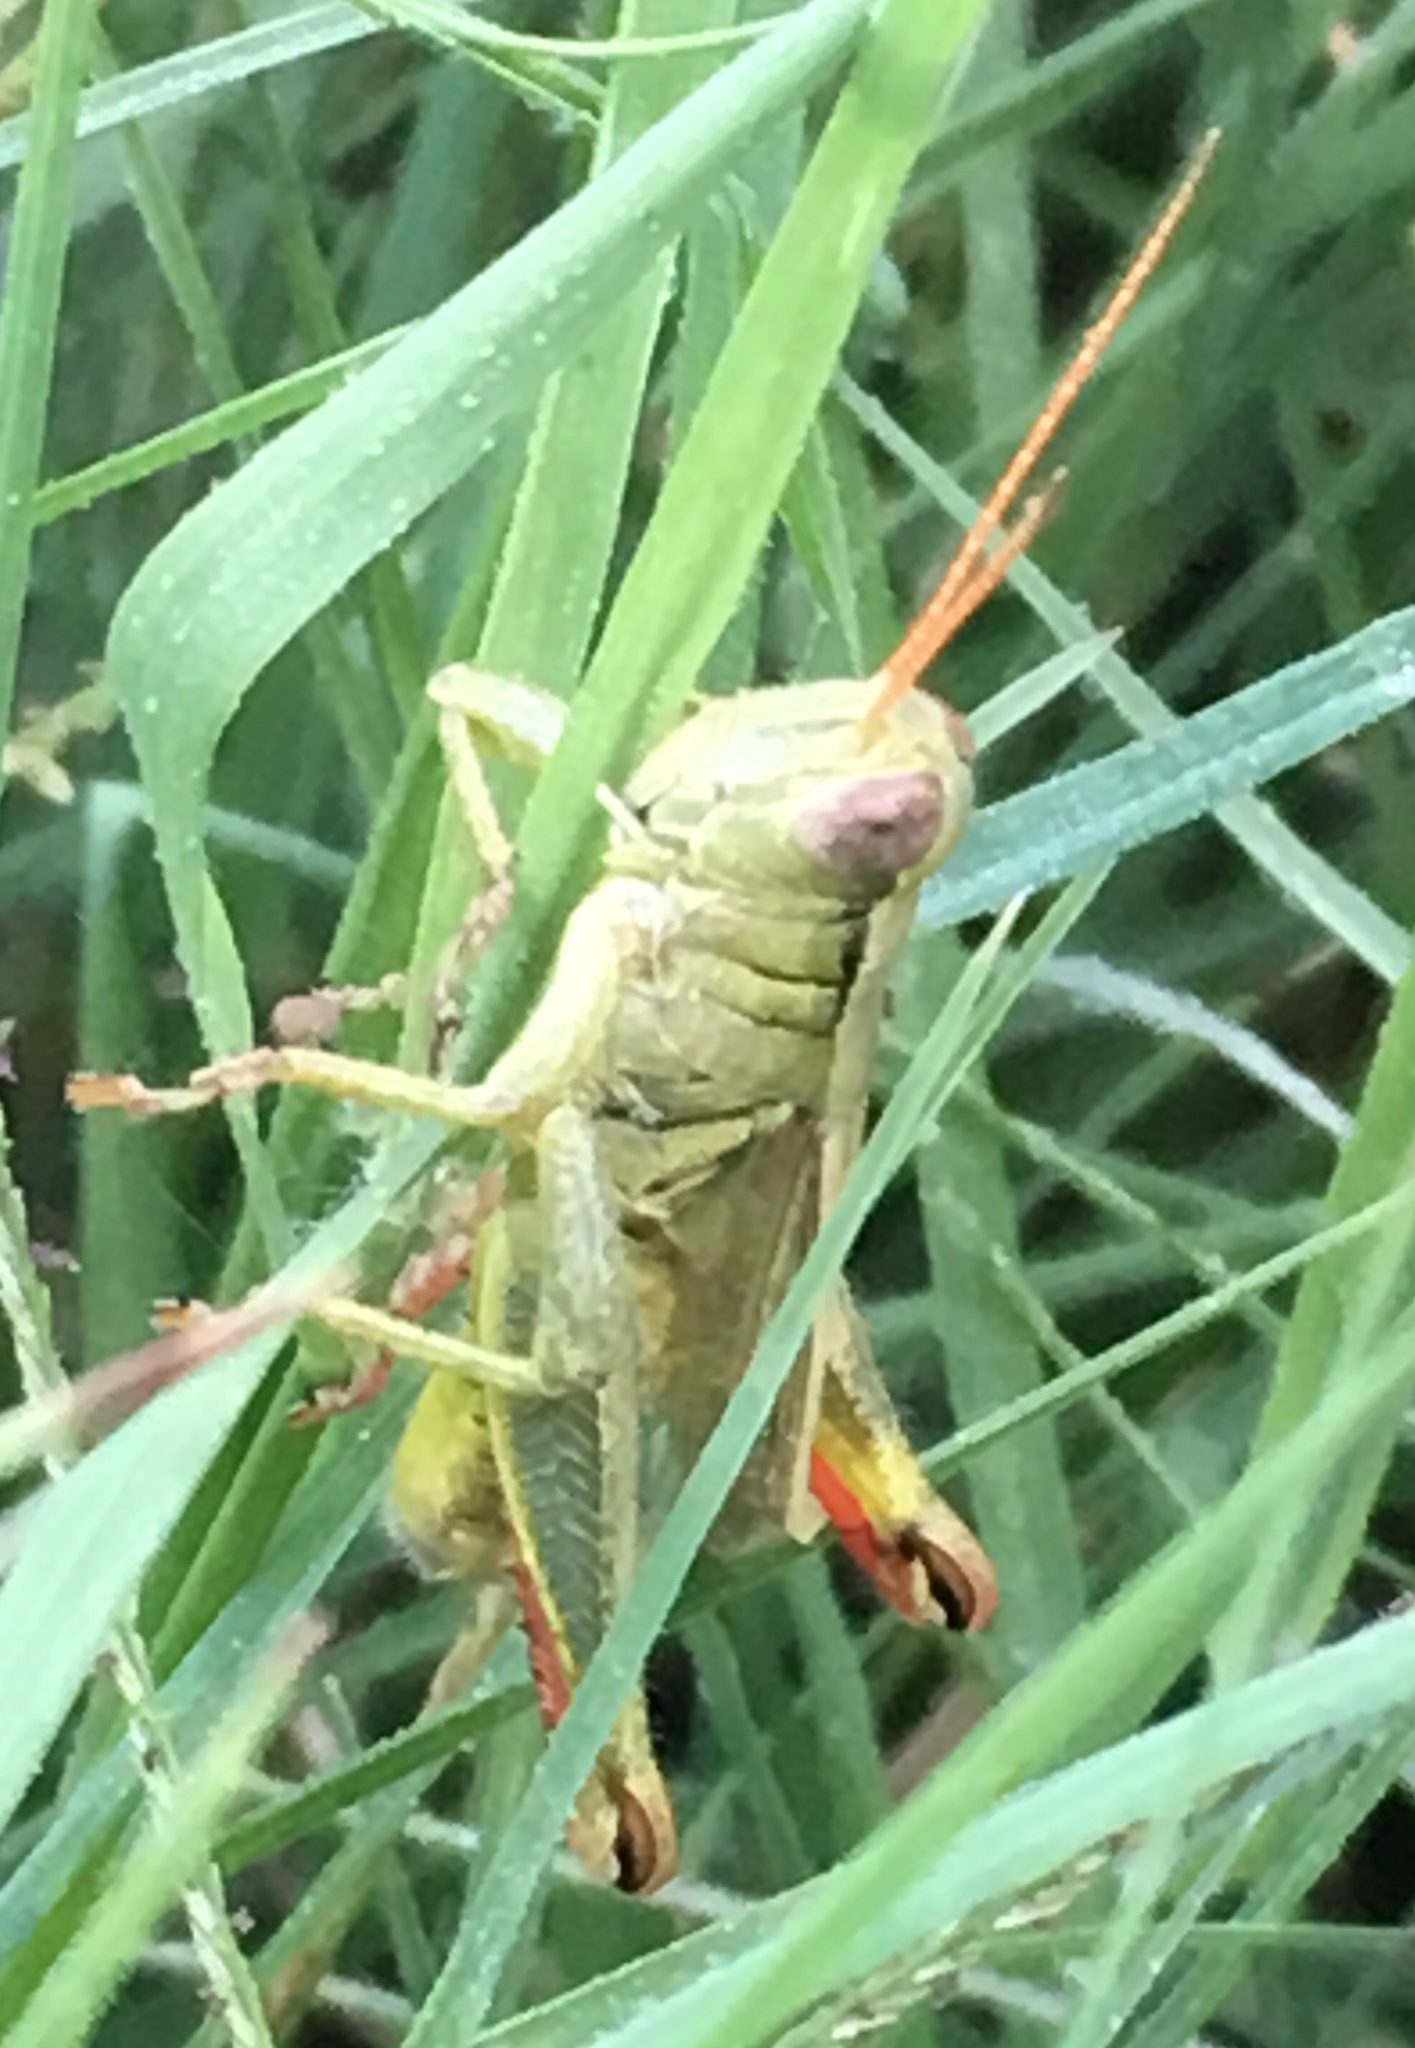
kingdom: Animalia
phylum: Arthropoda
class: Insecta
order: Orthoptera
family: Acrididae
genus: Melanoplus
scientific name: Melanoplus yarrowii
